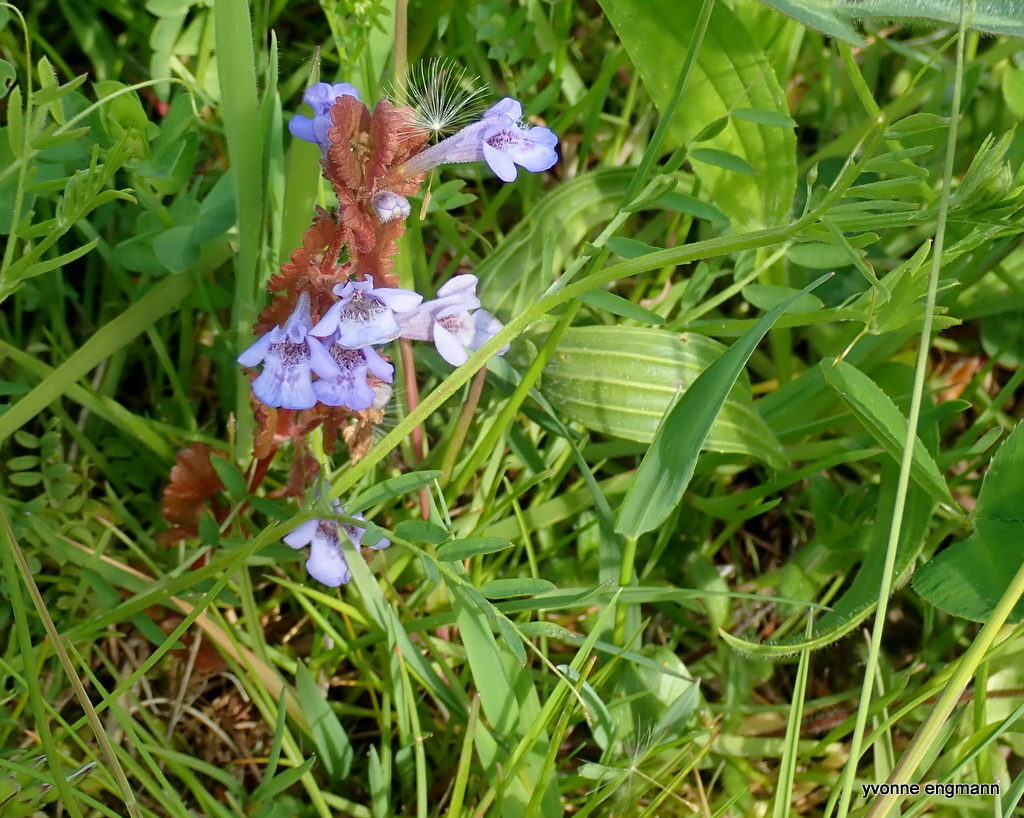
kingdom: Plantae
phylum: Tracheophyta
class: Magnoliopsida
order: Lamiales
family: Lamiaceae
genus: Glechoma
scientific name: Glechoma hederacea
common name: Ground ivy
